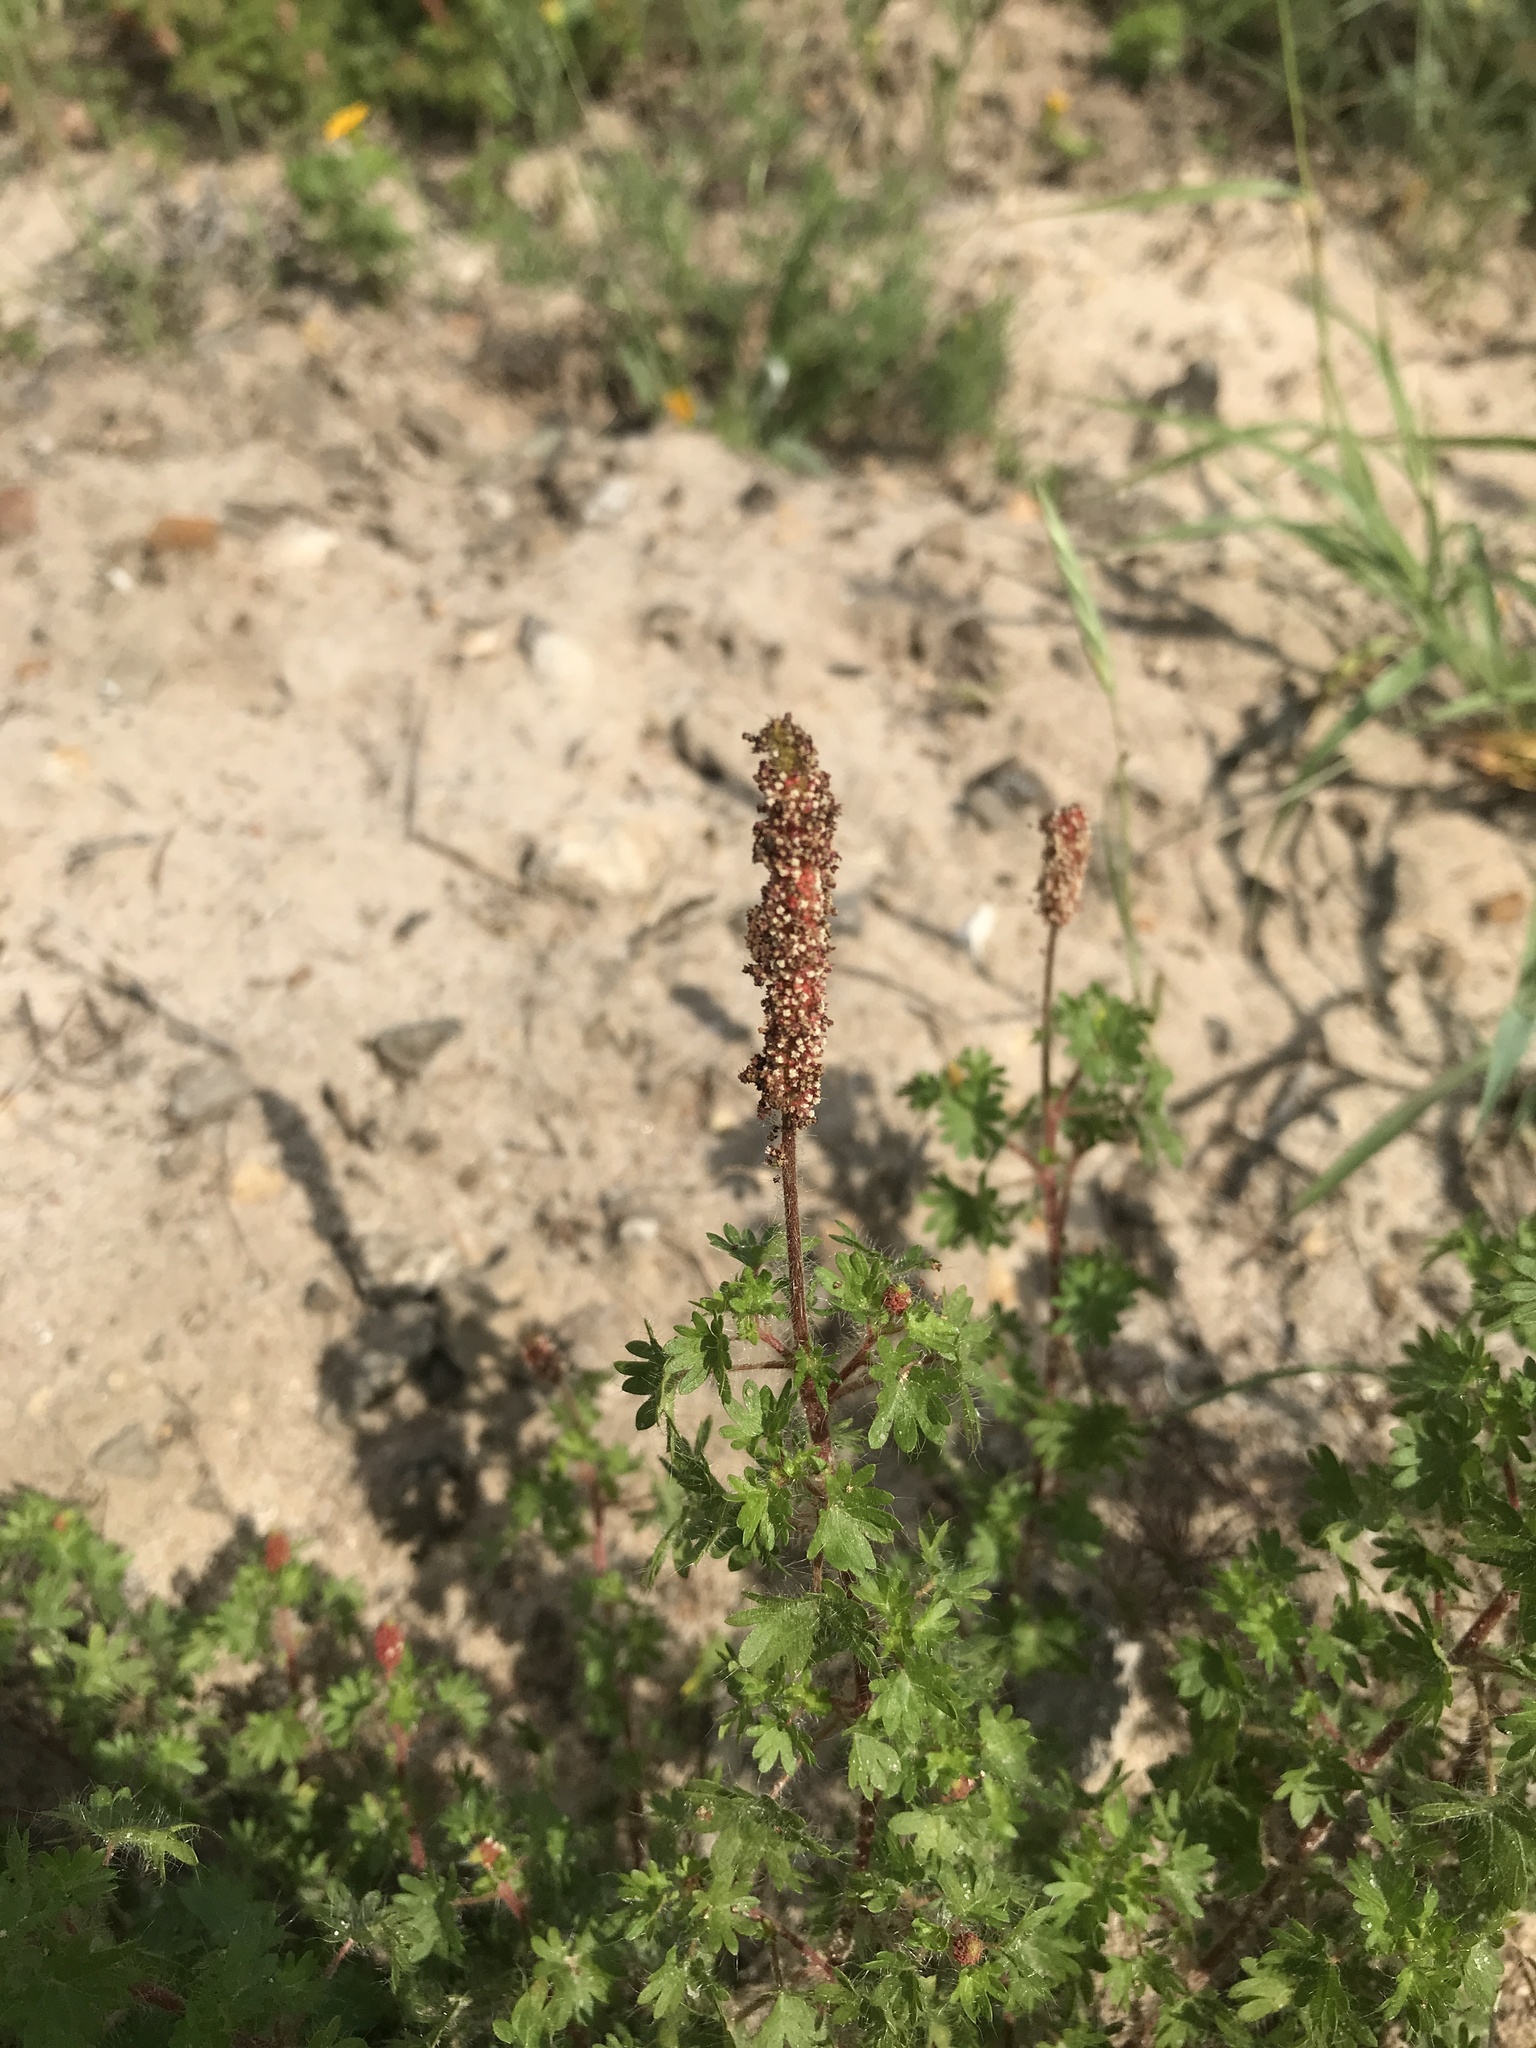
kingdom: Plantae
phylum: Tracheophyta
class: Magnoliopsida
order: Malpighiales
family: Euphorbiaceae
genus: Acalypha
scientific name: Acalypha radians
